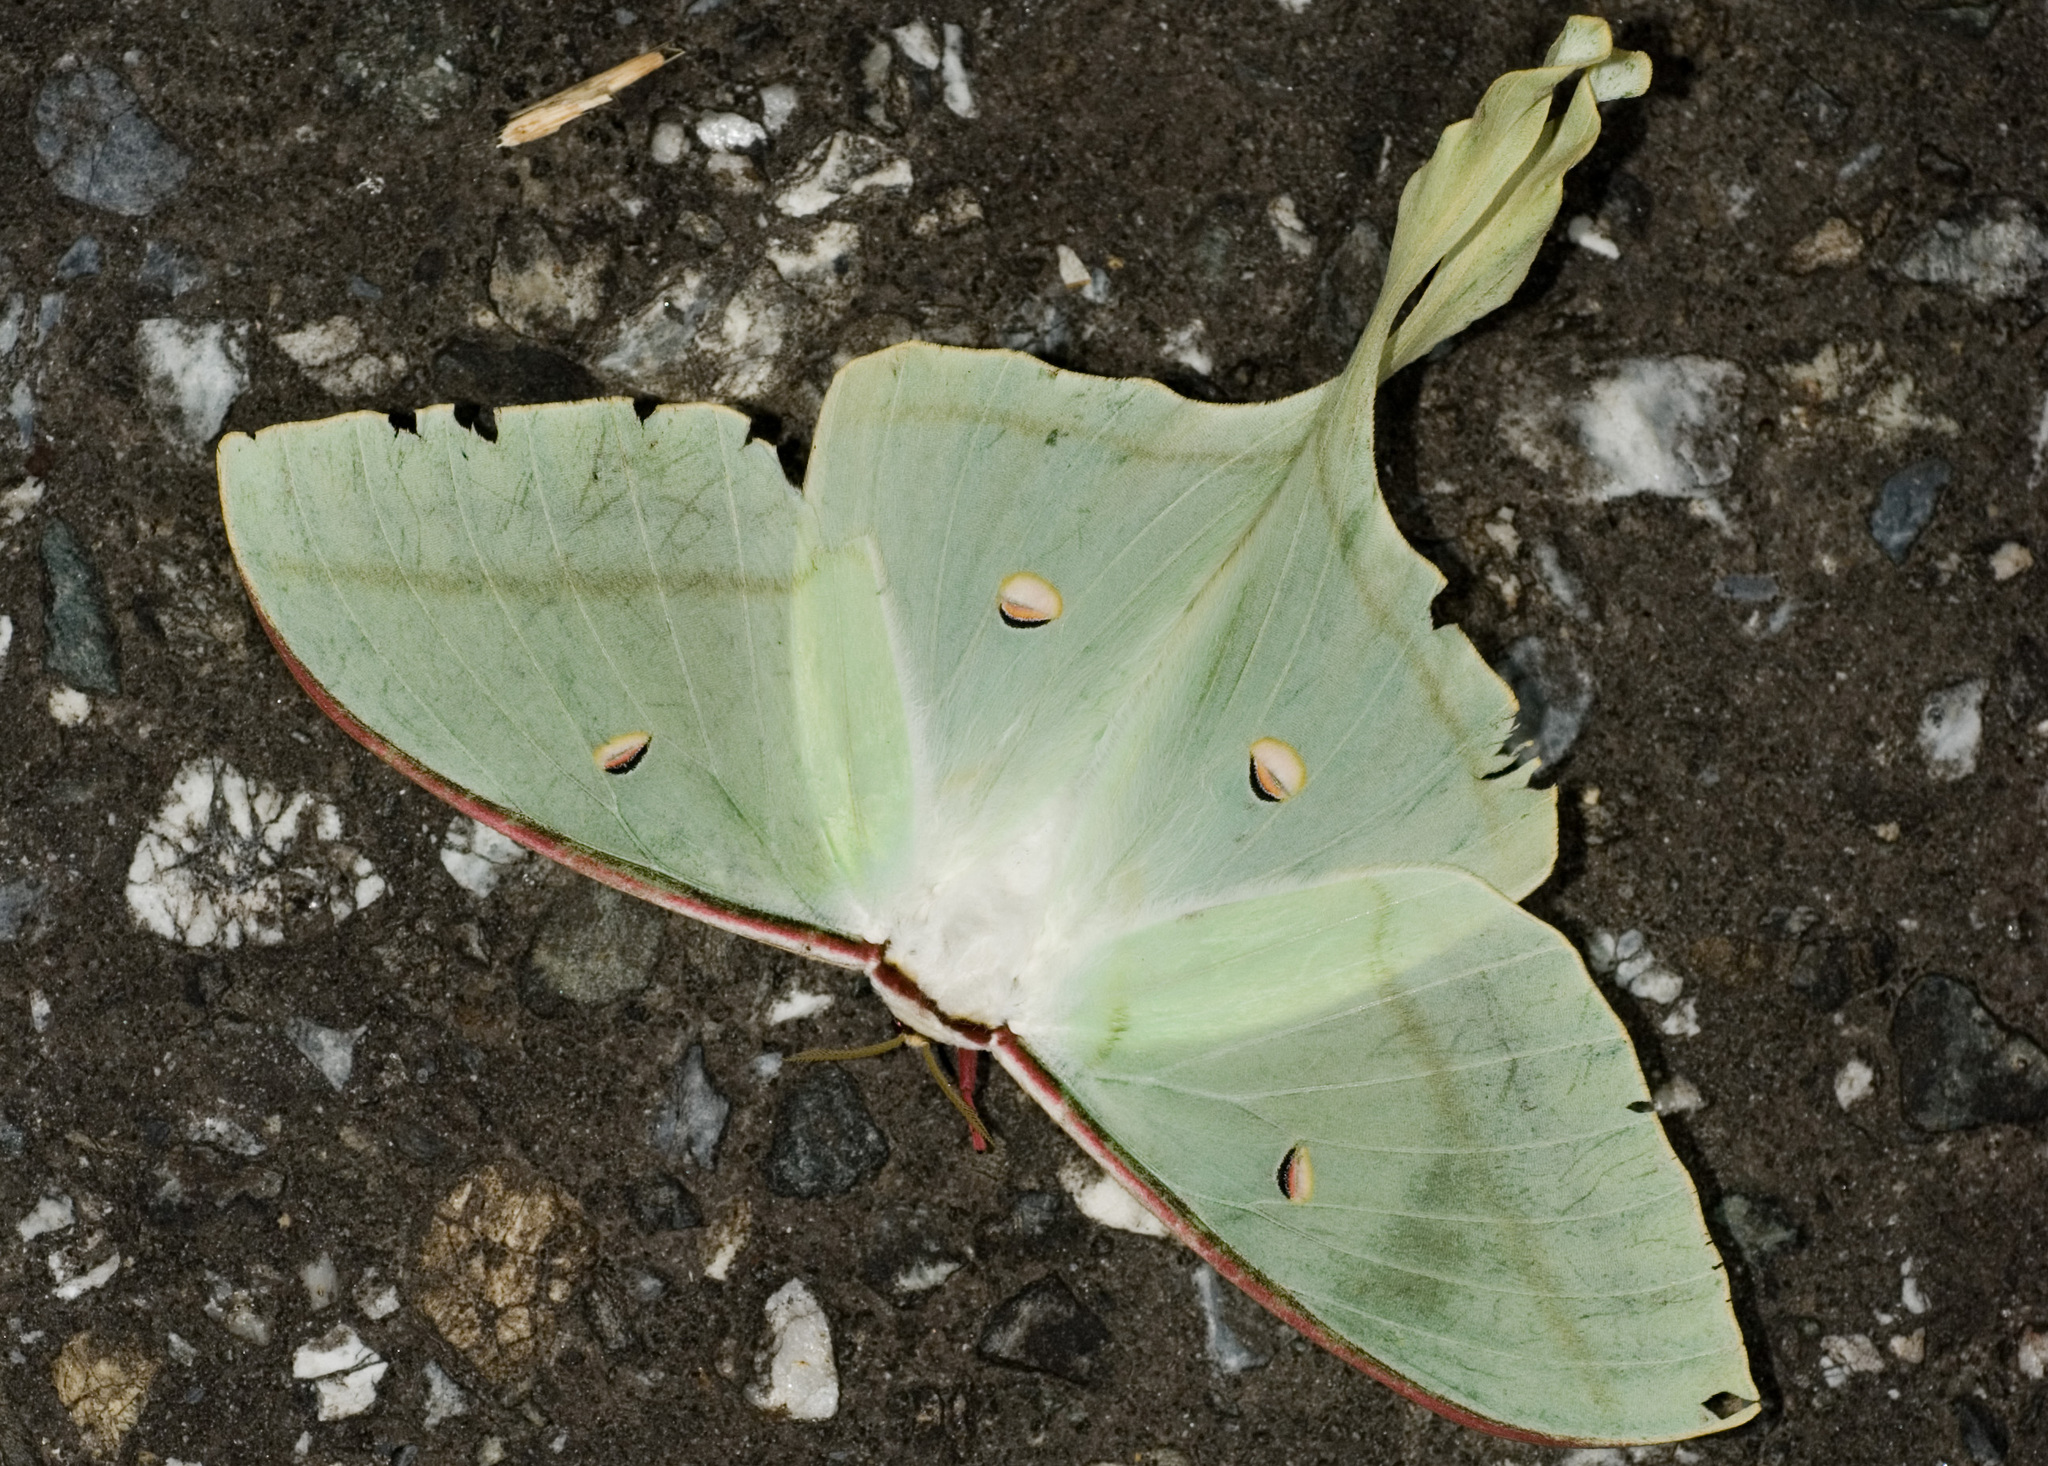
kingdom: Animalia
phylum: Arthropoda
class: Insecta
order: Lepidoptera
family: Saturniidae
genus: Actias
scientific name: Actias ningpoana
